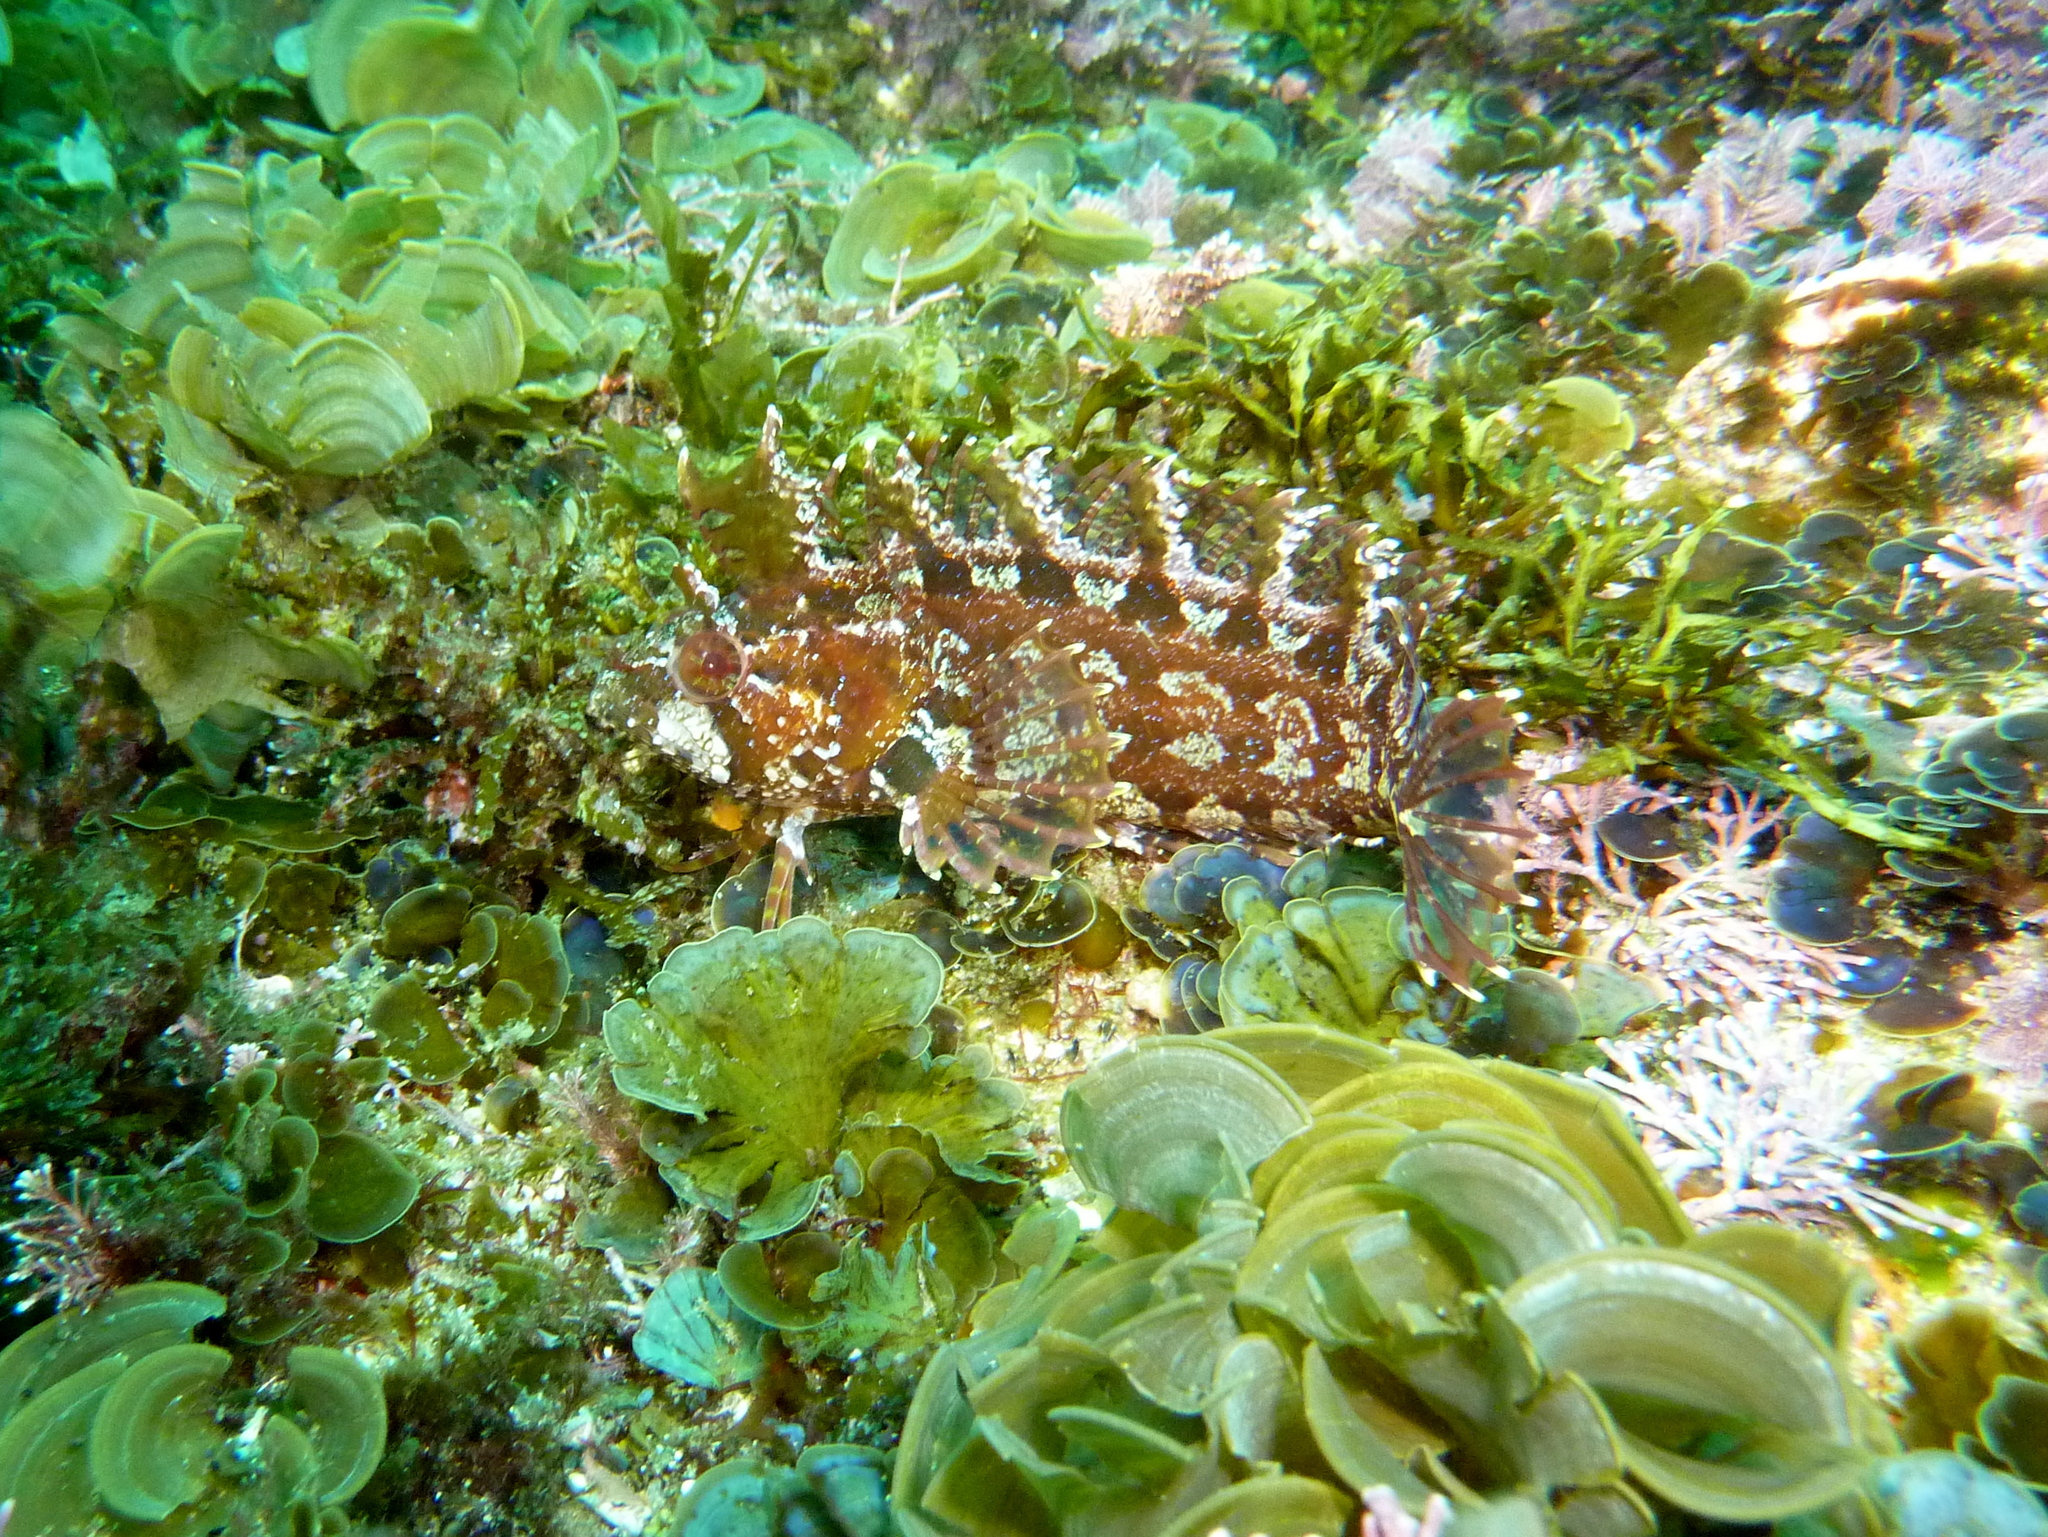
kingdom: Animalia
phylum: Chordata
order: Perciformes
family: Clinidae
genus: Heteroclinus
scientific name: Heteroclinus roseus
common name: Rosy weedfish
